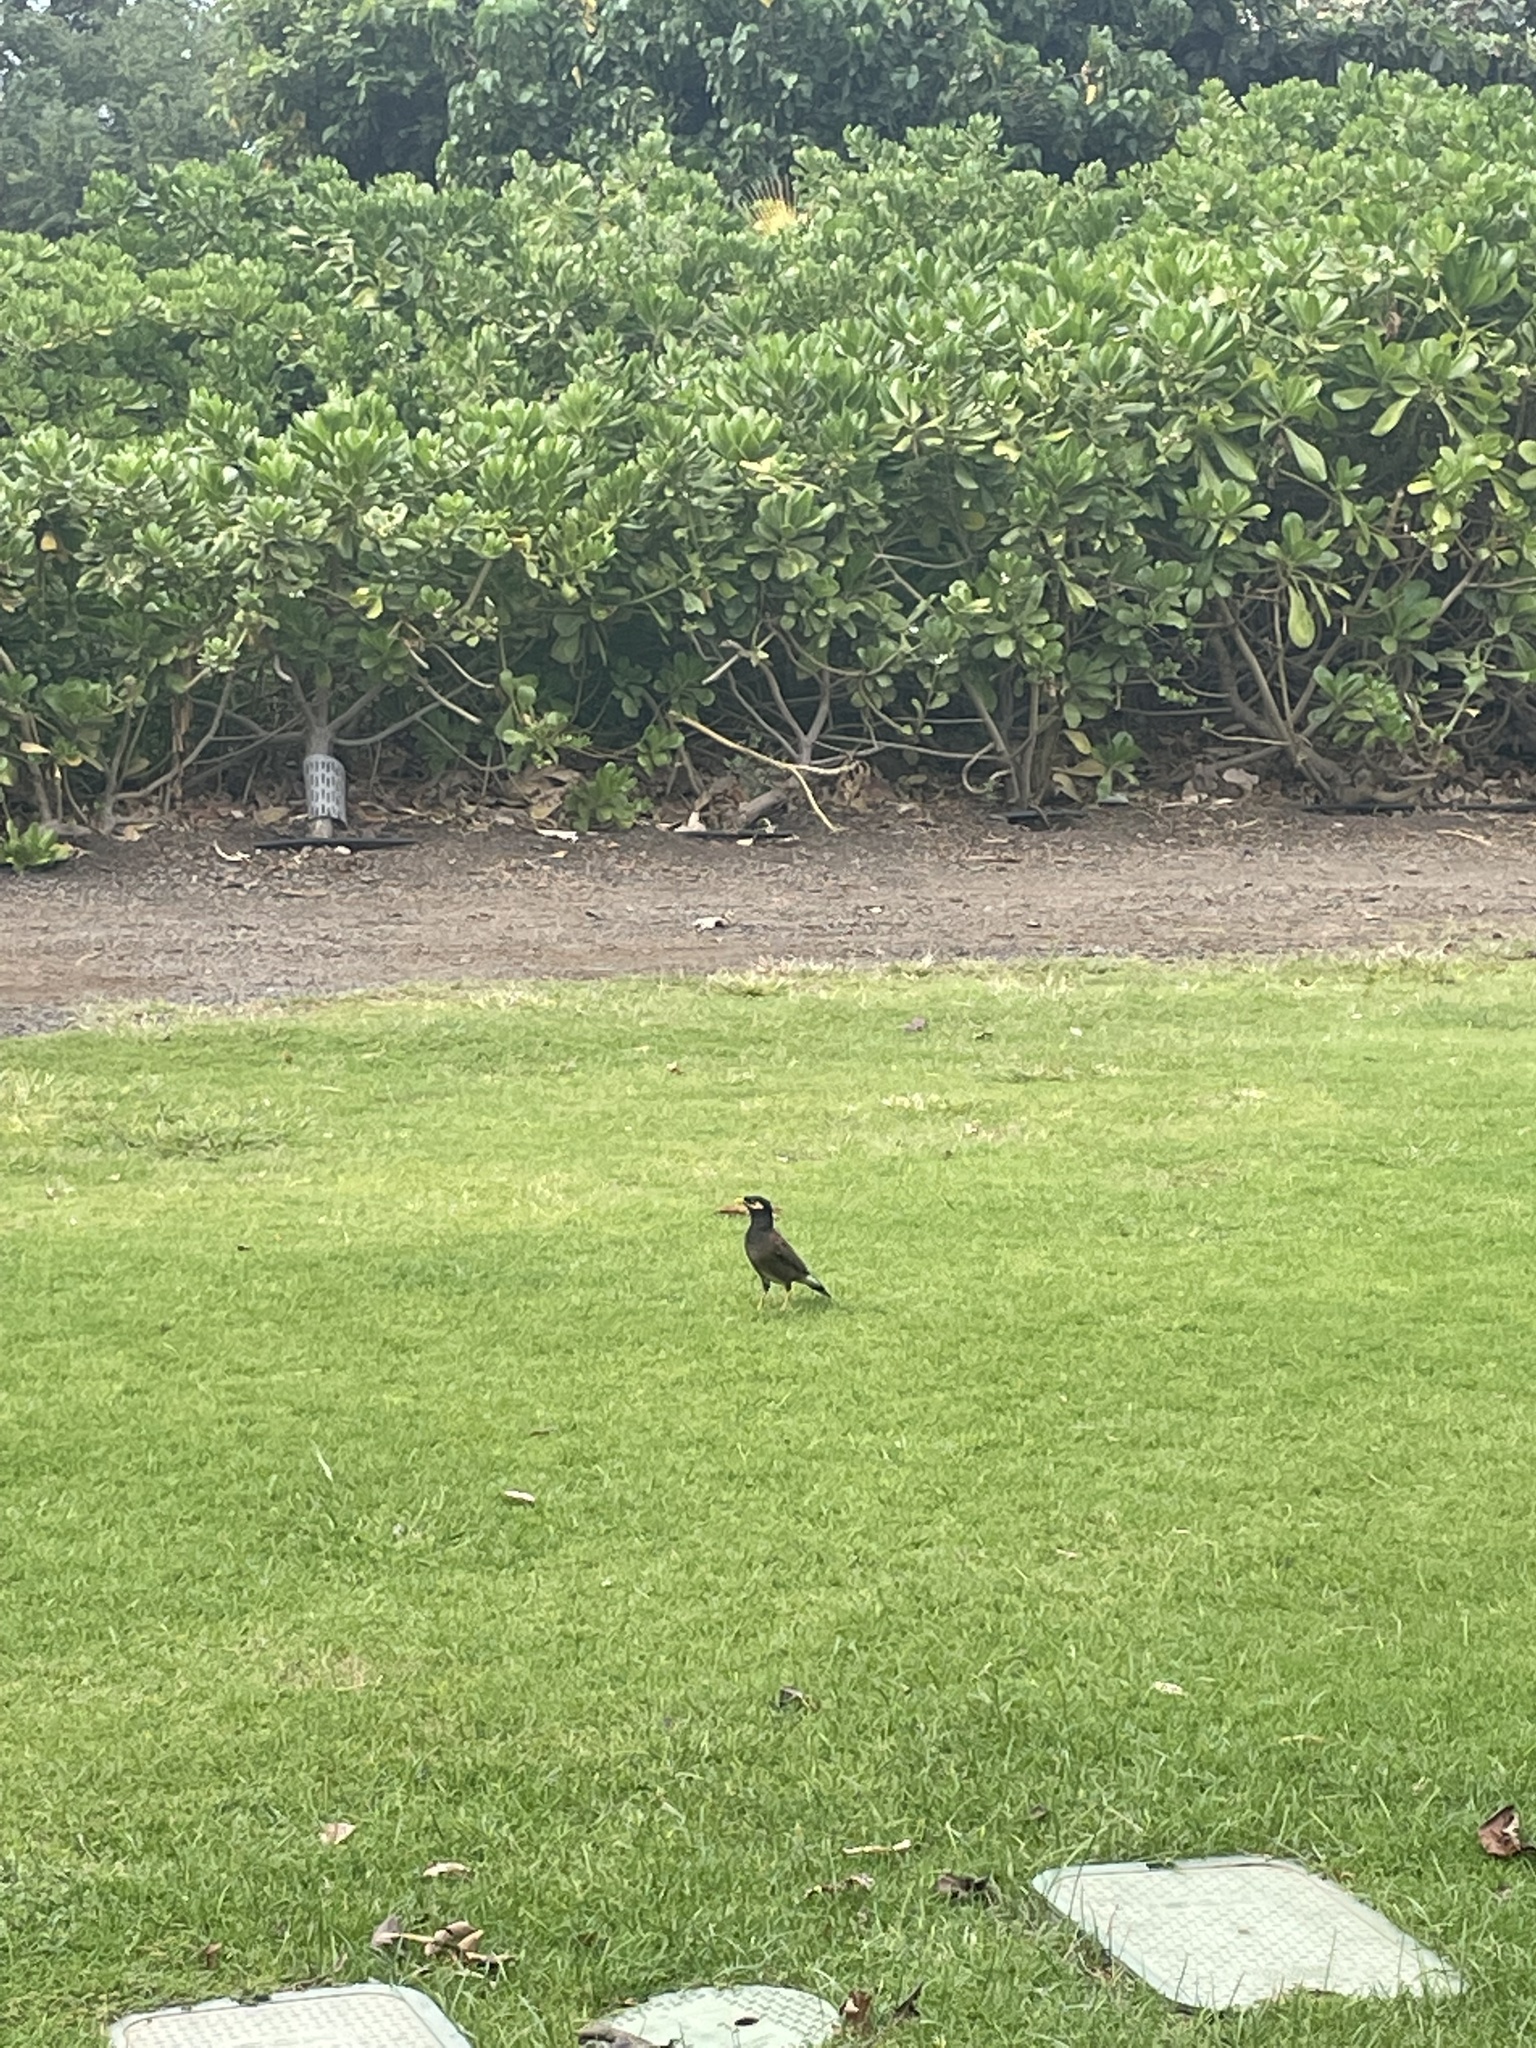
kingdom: Animalia
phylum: Chordata
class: Aves
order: Passeriformes
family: Sturnidae
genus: Acridotheres
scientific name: Acridotheres tristis
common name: Common myna
